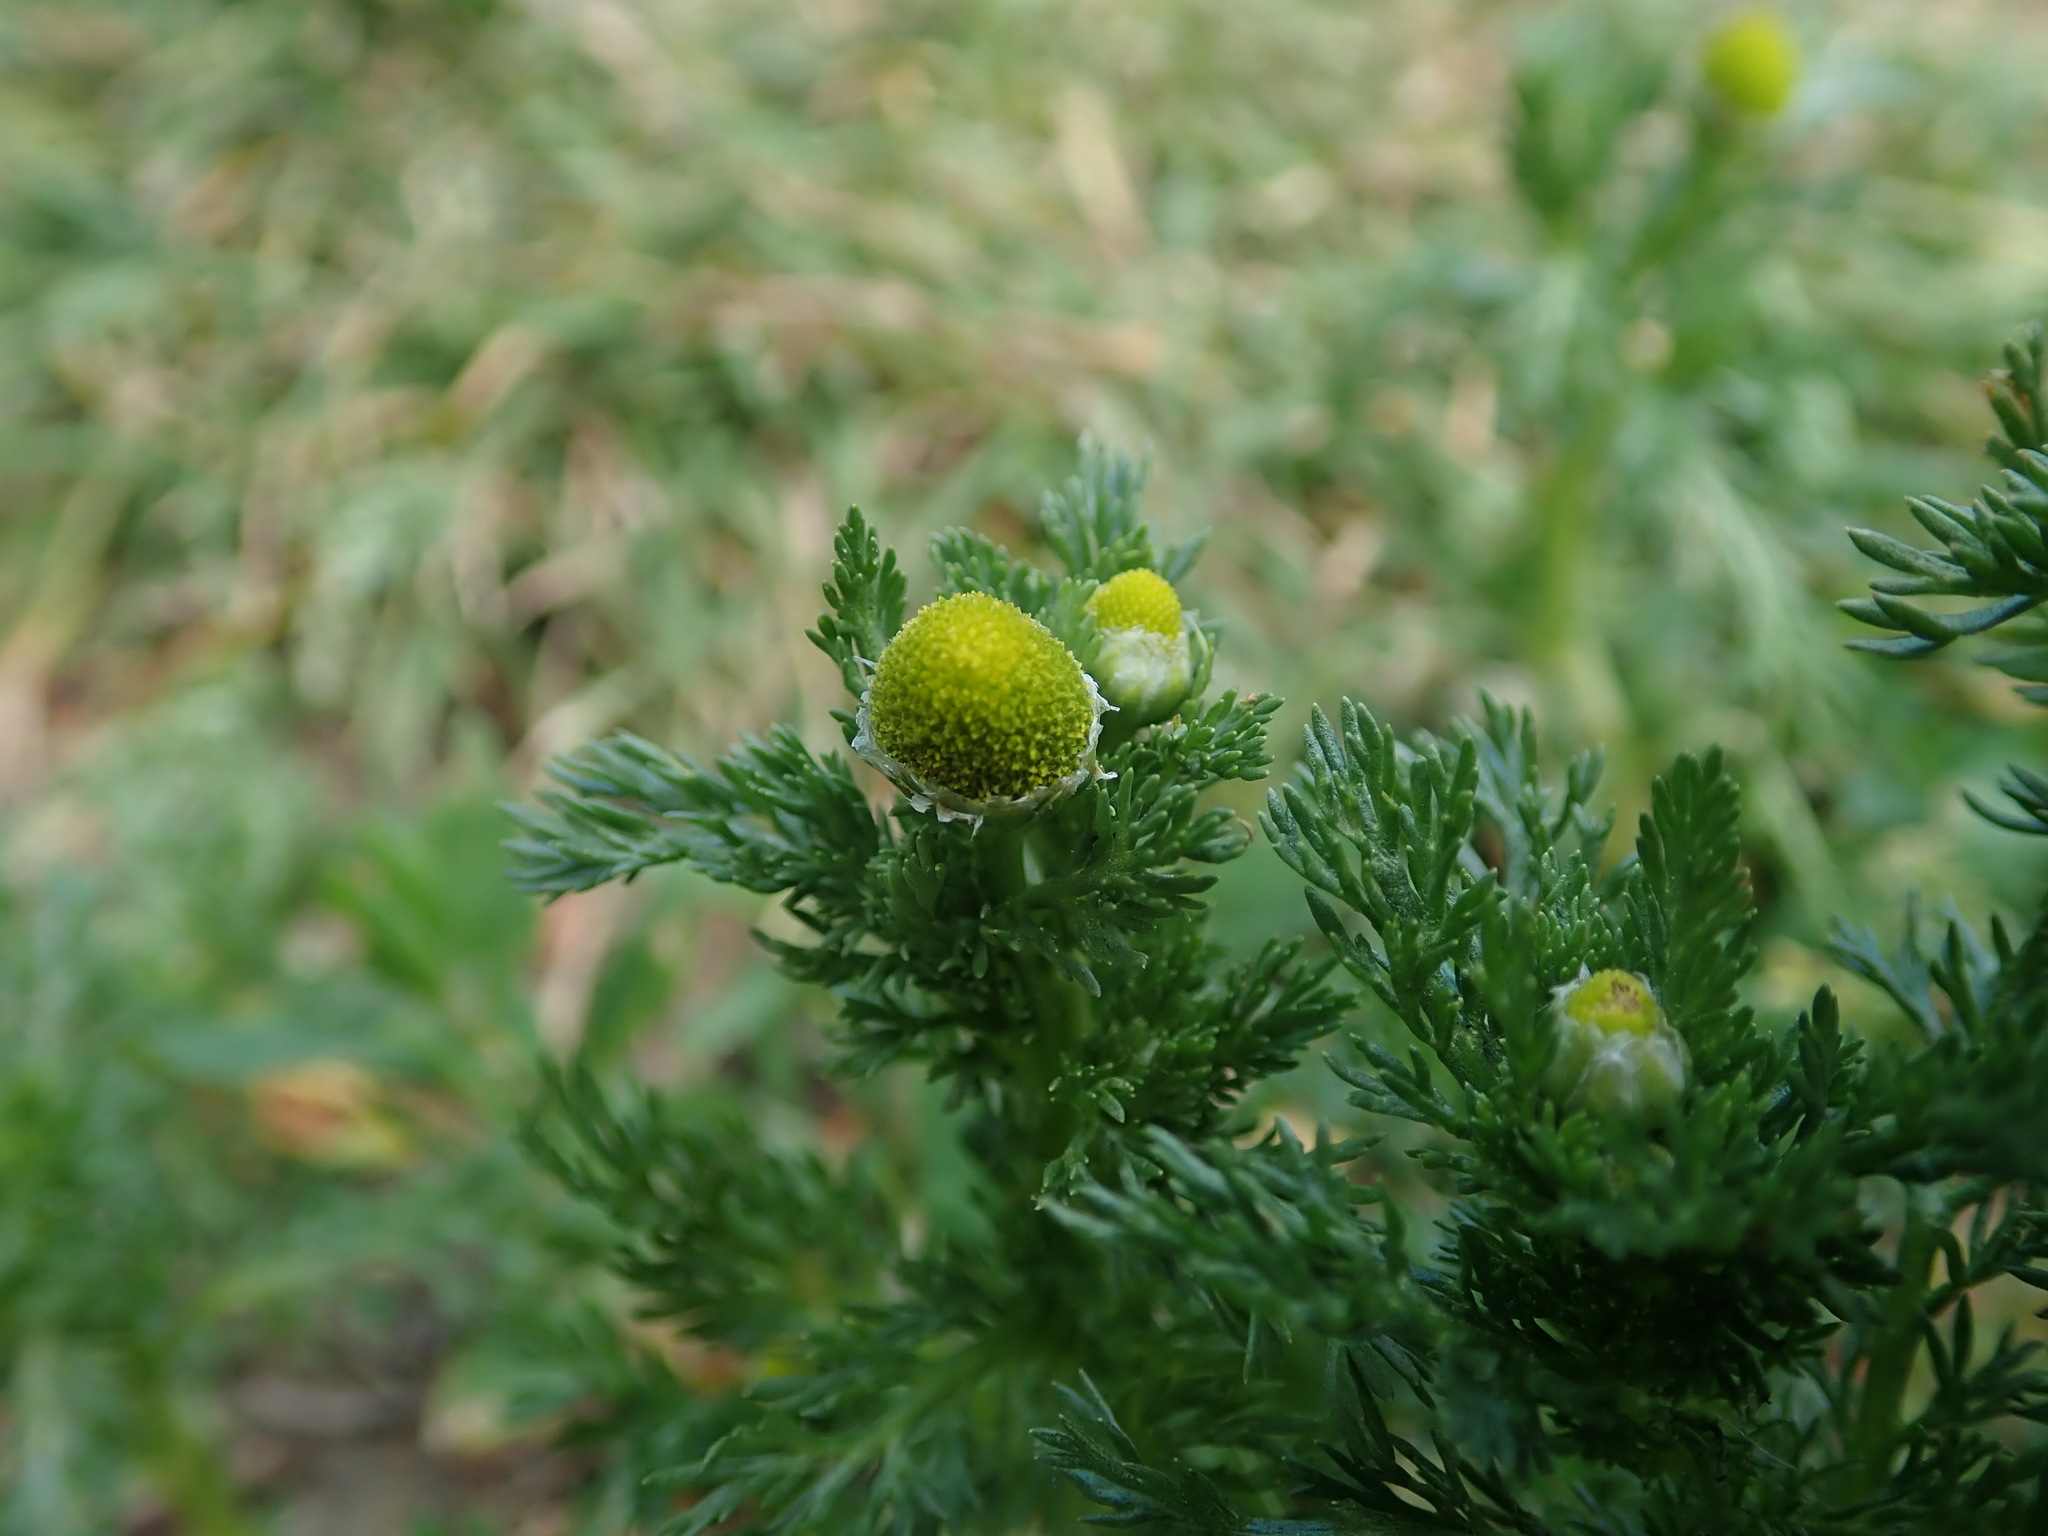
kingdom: Plantae
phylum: Tracheophyta
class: Magnoliopsida
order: Asterales
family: Asteraceae
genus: Matricaria
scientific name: Matricaria discoidea
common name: Disc mayweed
